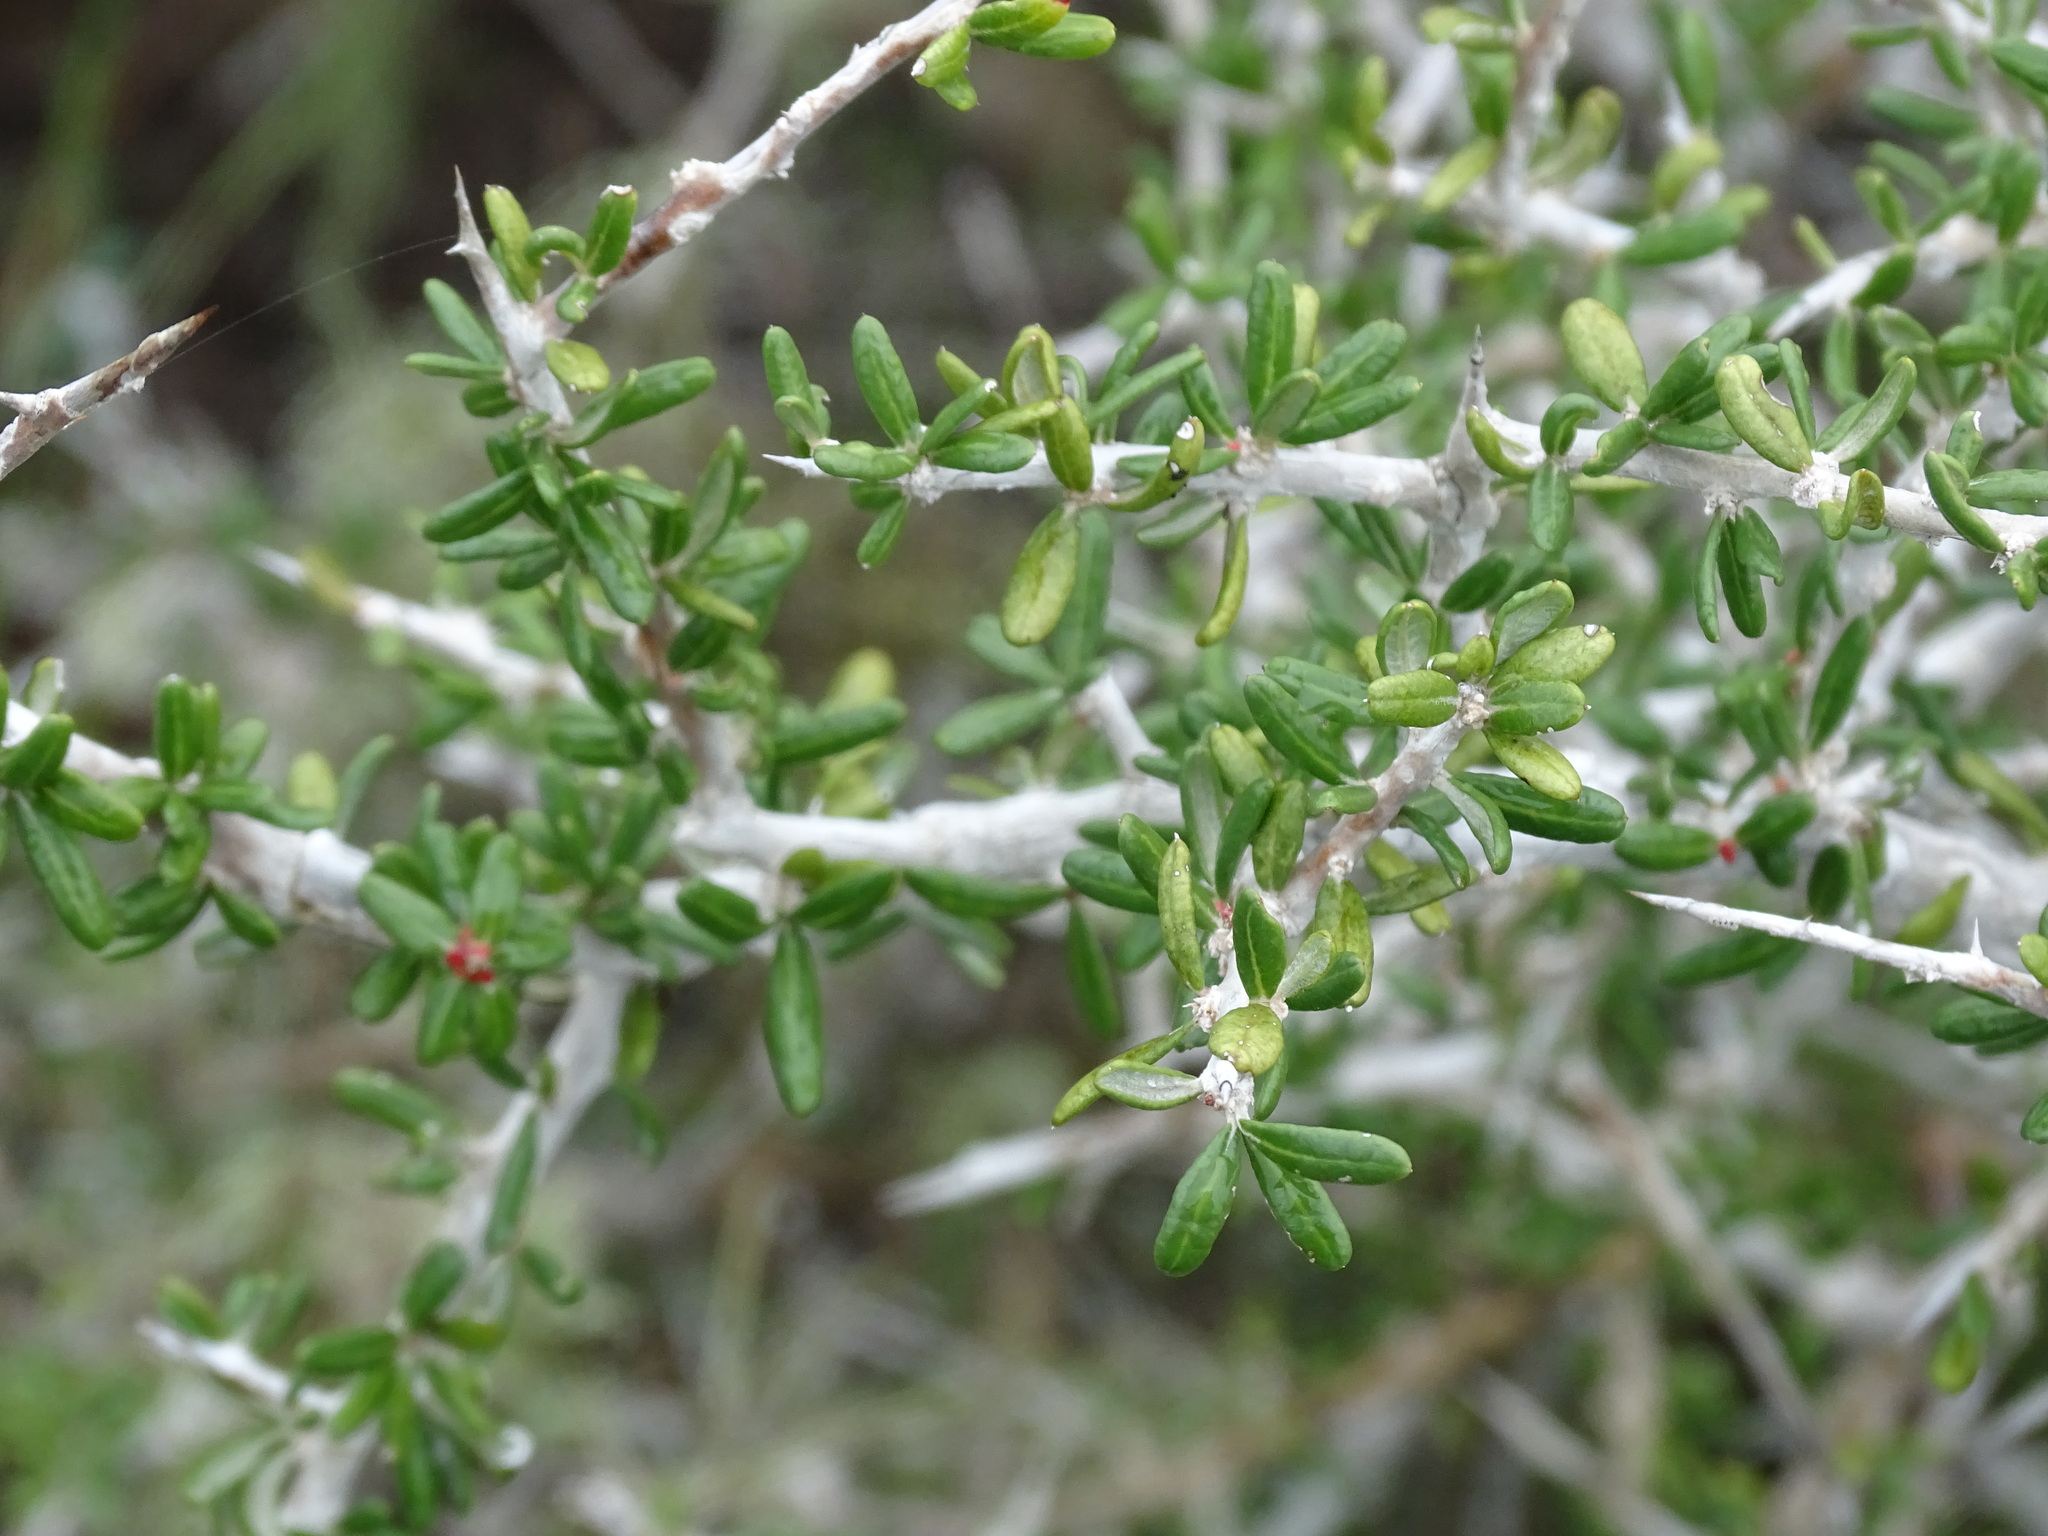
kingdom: Plantae
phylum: Tracheophyta
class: Magnoliopsida
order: Sapindales
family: Simaroubaceae
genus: Castela
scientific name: Castela tortuosa
